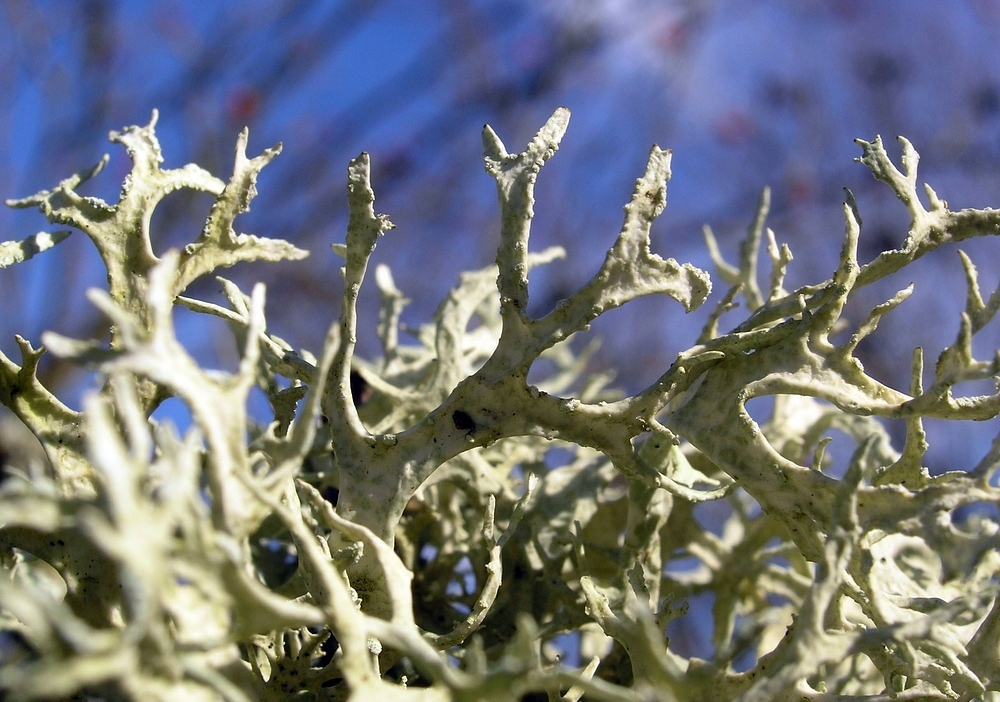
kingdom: Fungi
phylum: Ascomycota
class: Lecanoromycetes
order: Lecanorales
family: Parmeliaceae
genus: Evernia
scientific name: Evernia prunastri
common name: Oak moss
